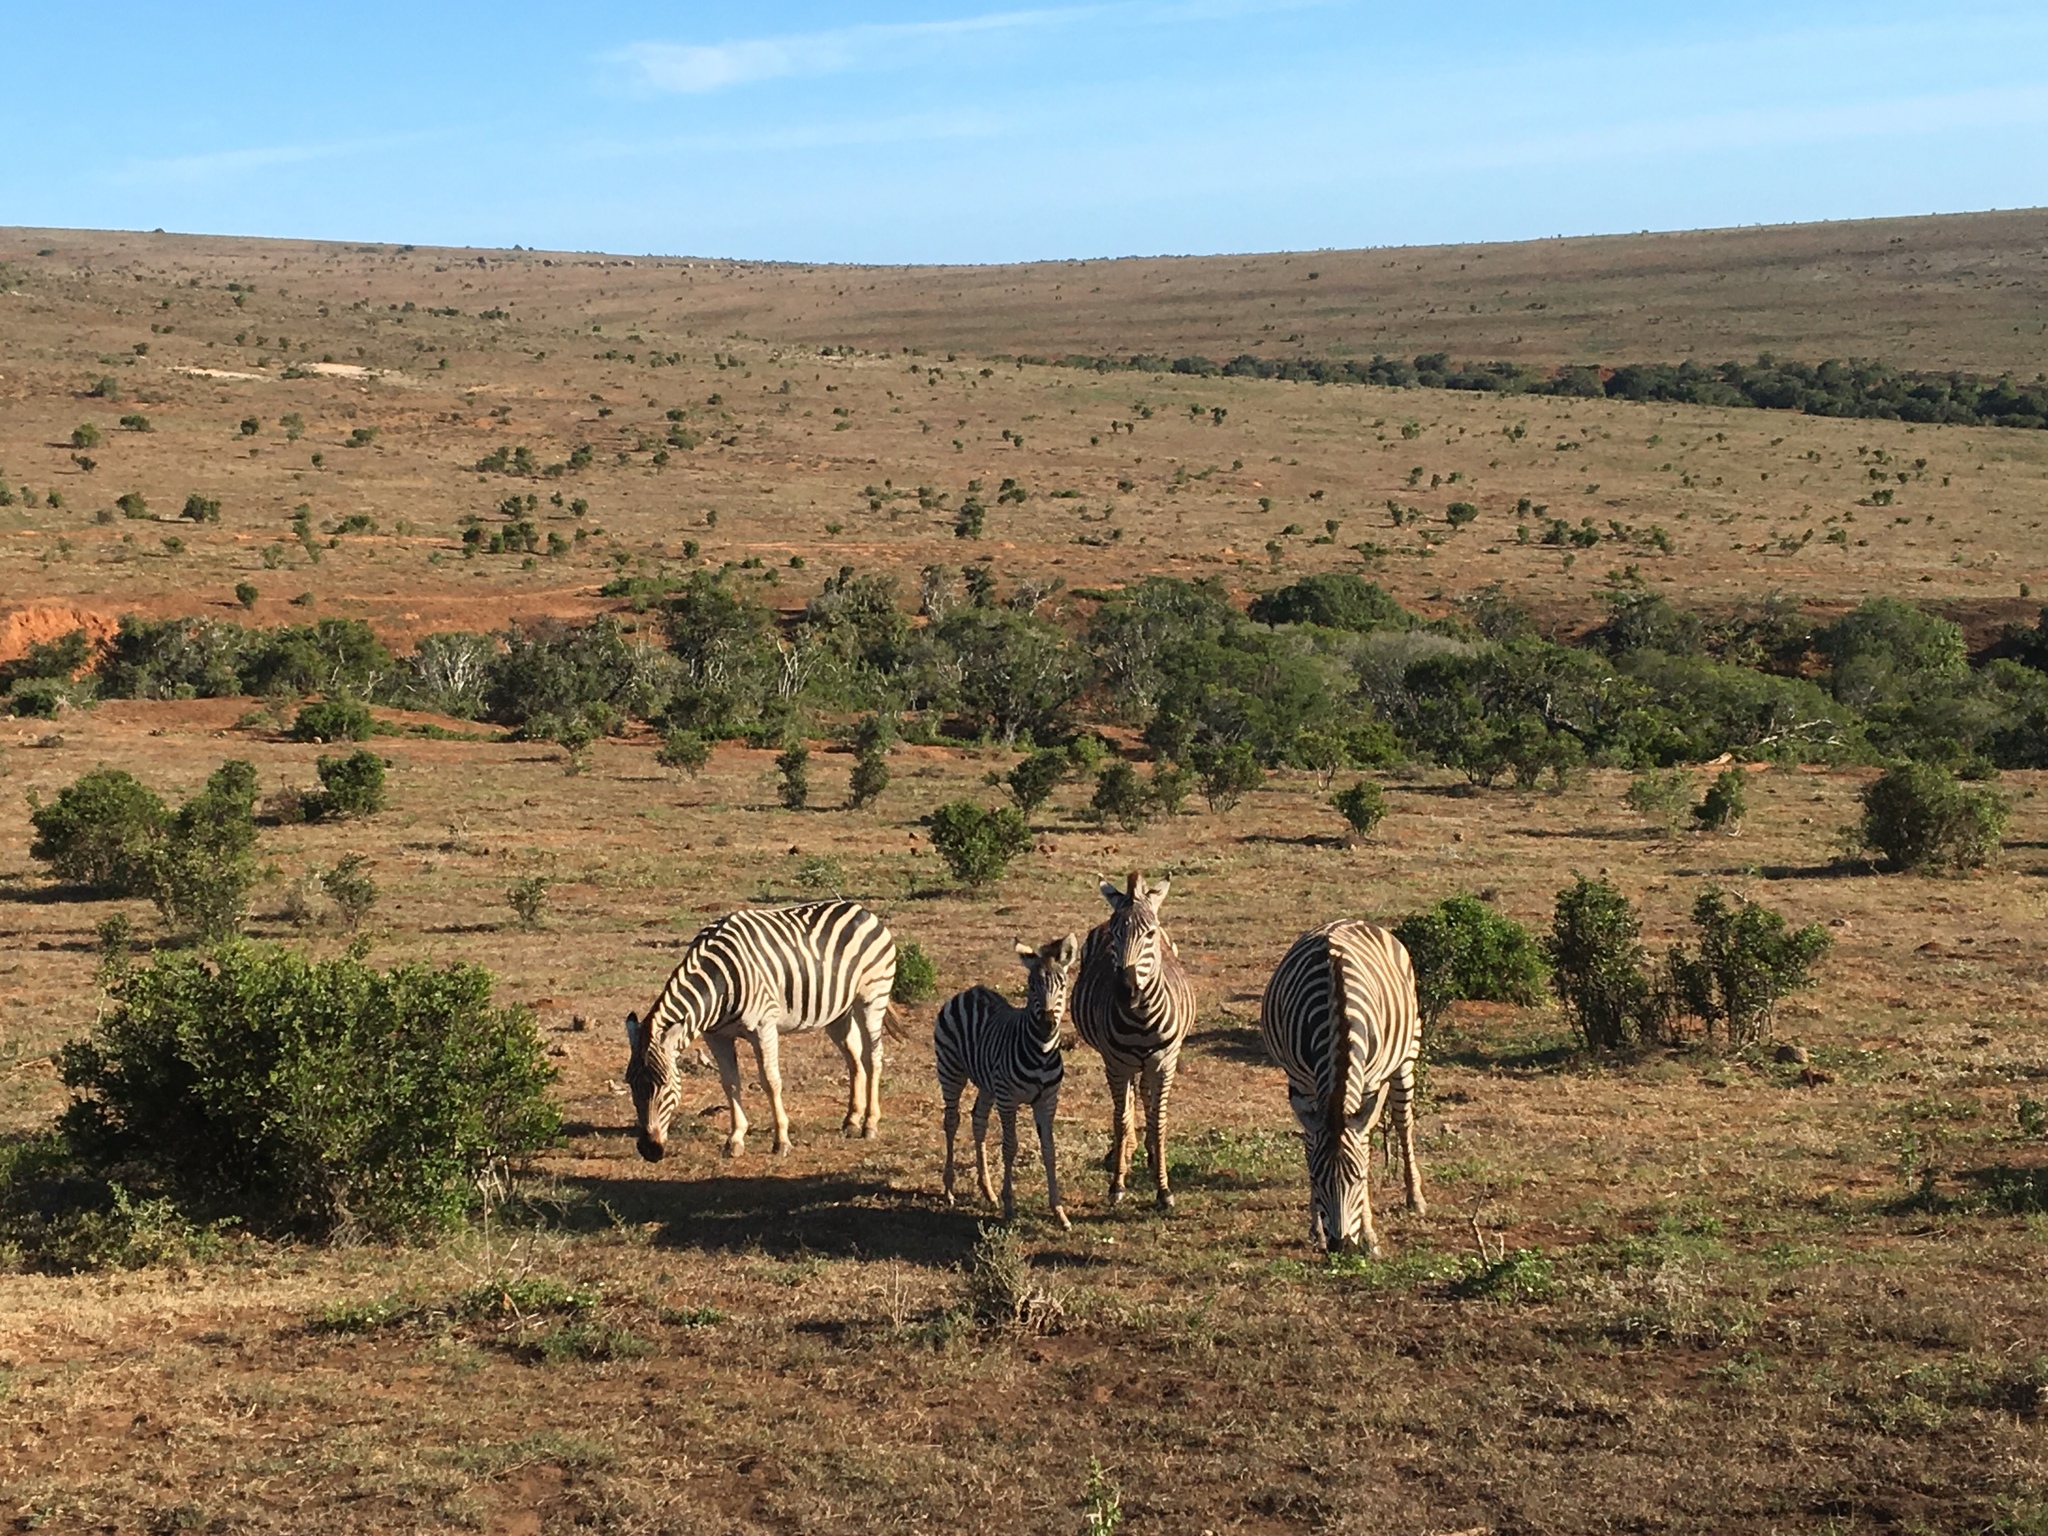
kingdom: Animalia
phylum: Chordata
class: Mammalia
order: Perissodactyla
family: Equidae
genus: Equus
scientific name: Equus quagga
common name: Plains zebra
